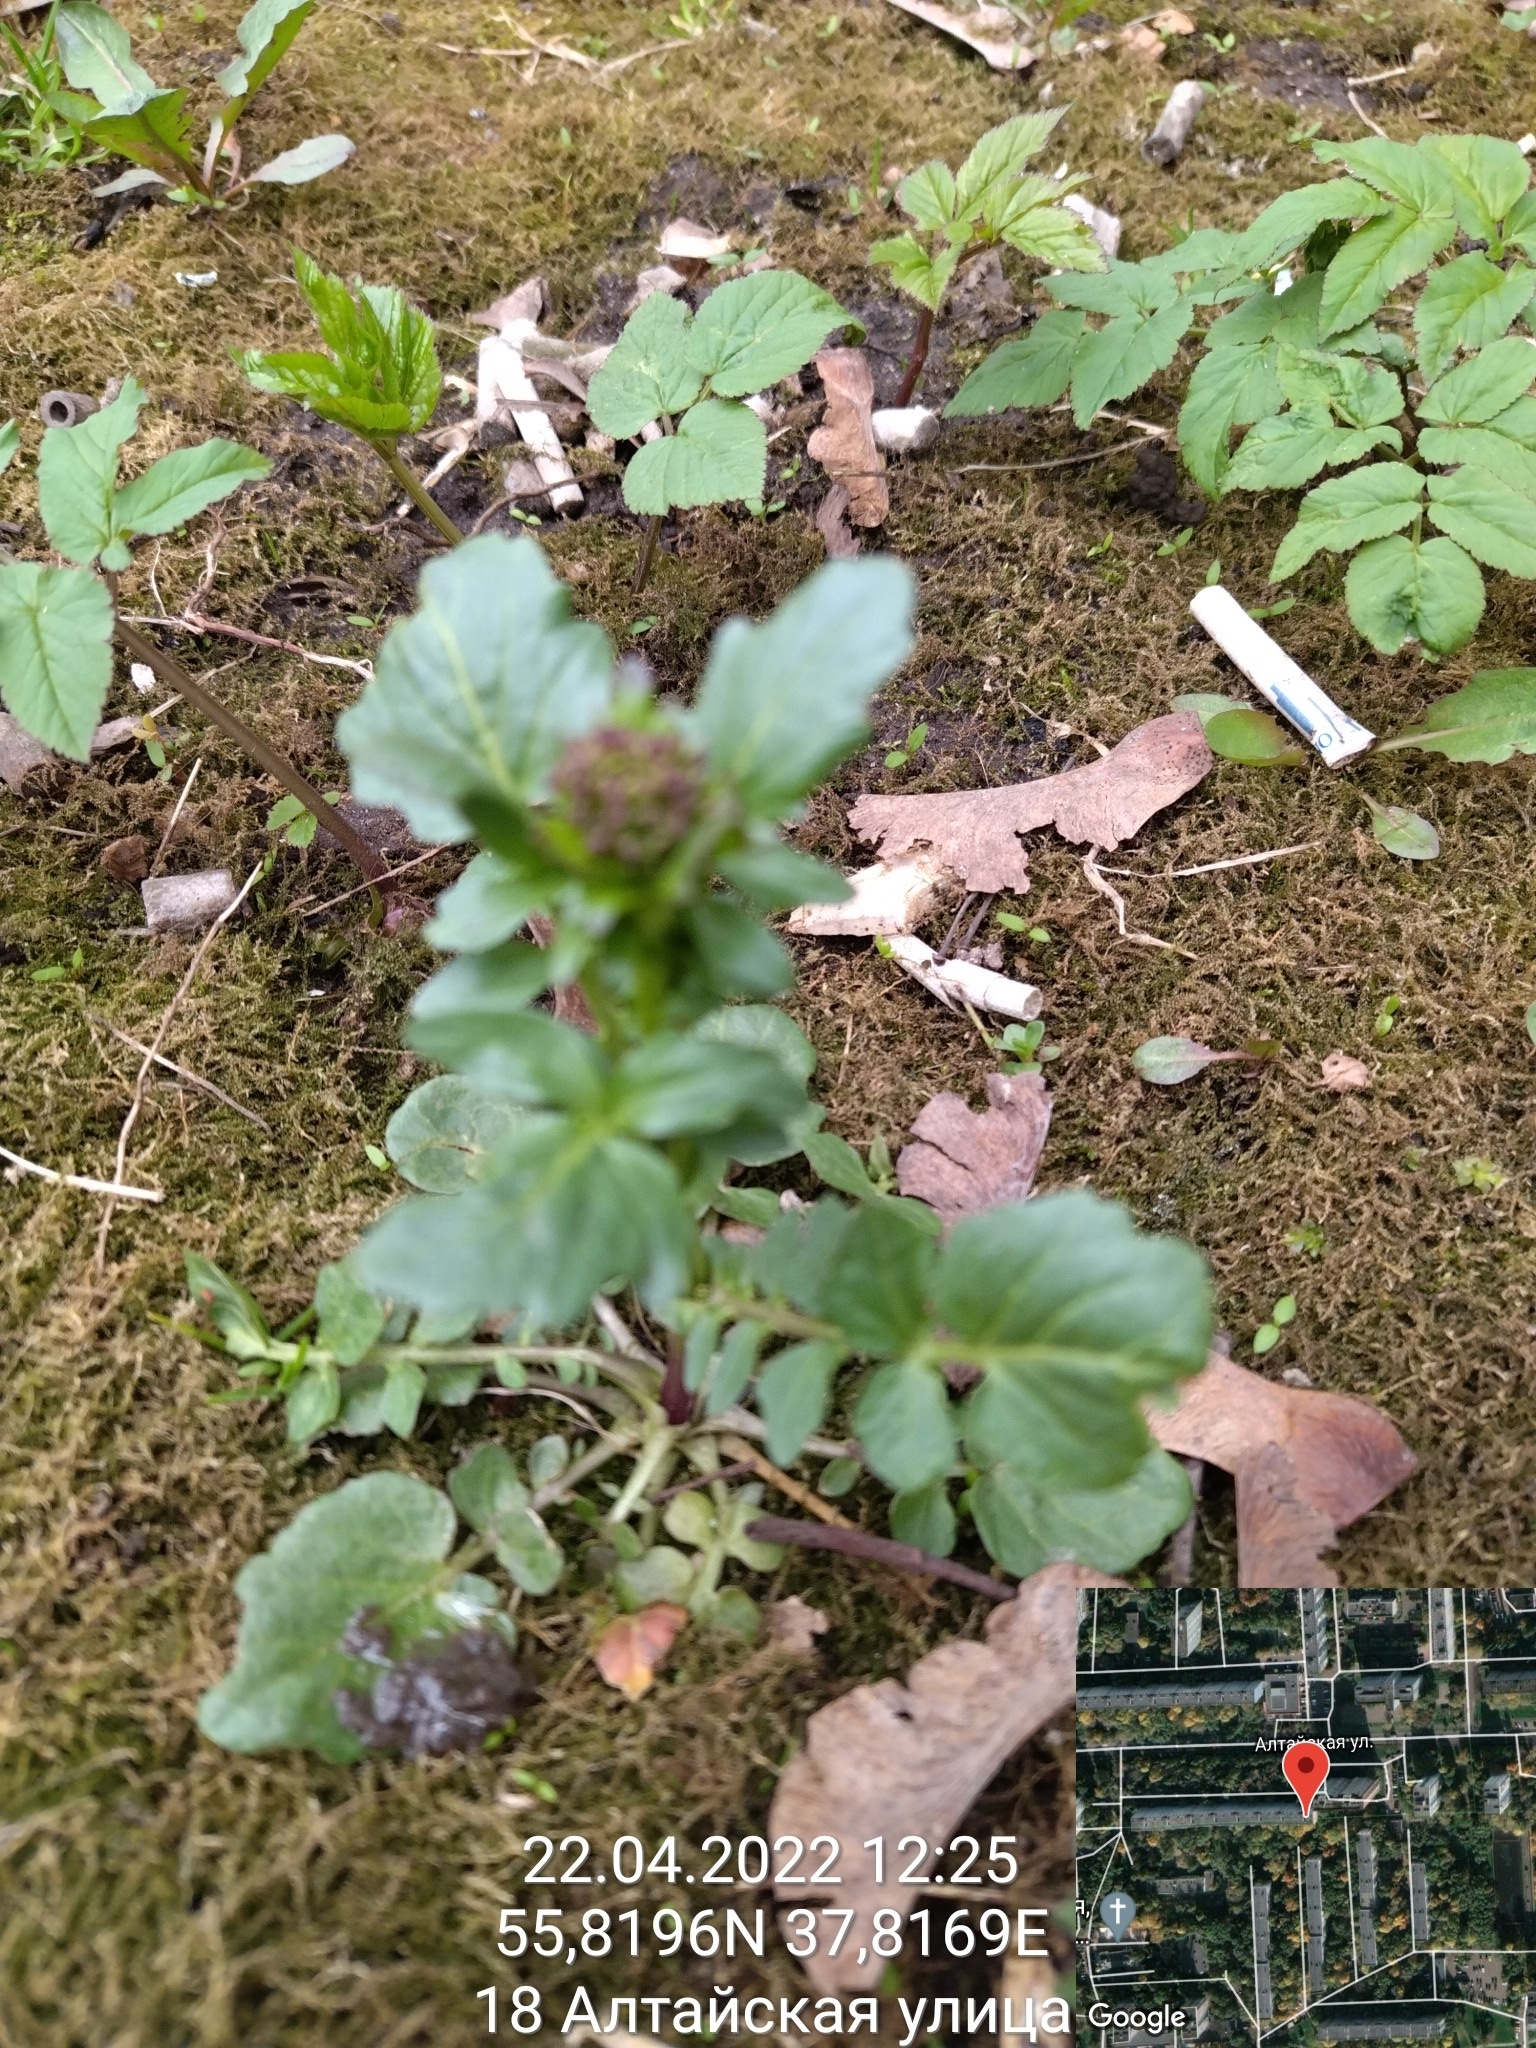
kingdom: Plantae
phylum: Tracheophyta
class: Magnoliopsida
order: Brassicales
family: Brassicaceae
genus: Barbarea
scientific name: Barbarea vulgaris
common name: Cressy-greens
